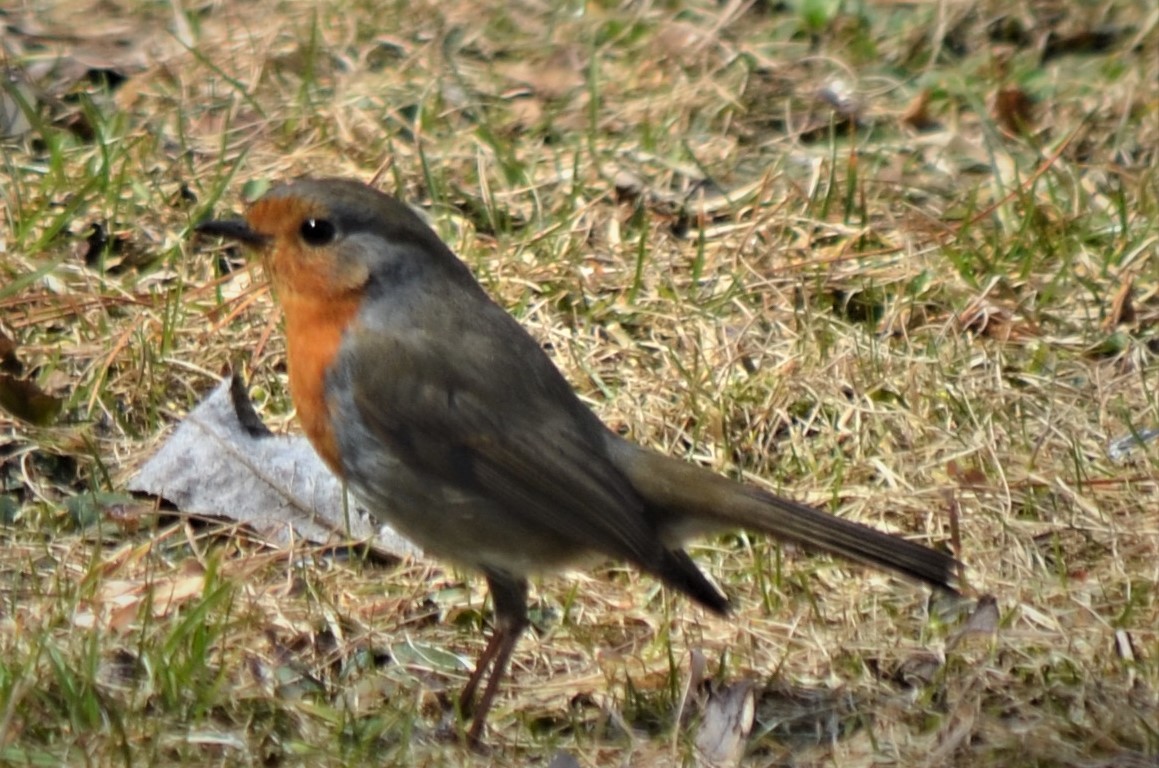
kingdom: Animalia
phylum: Chordata
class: Aves
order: Passeriformes
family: Muscicapidae
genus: Erithacus
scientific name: Erithacus rubecula
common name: European robin
